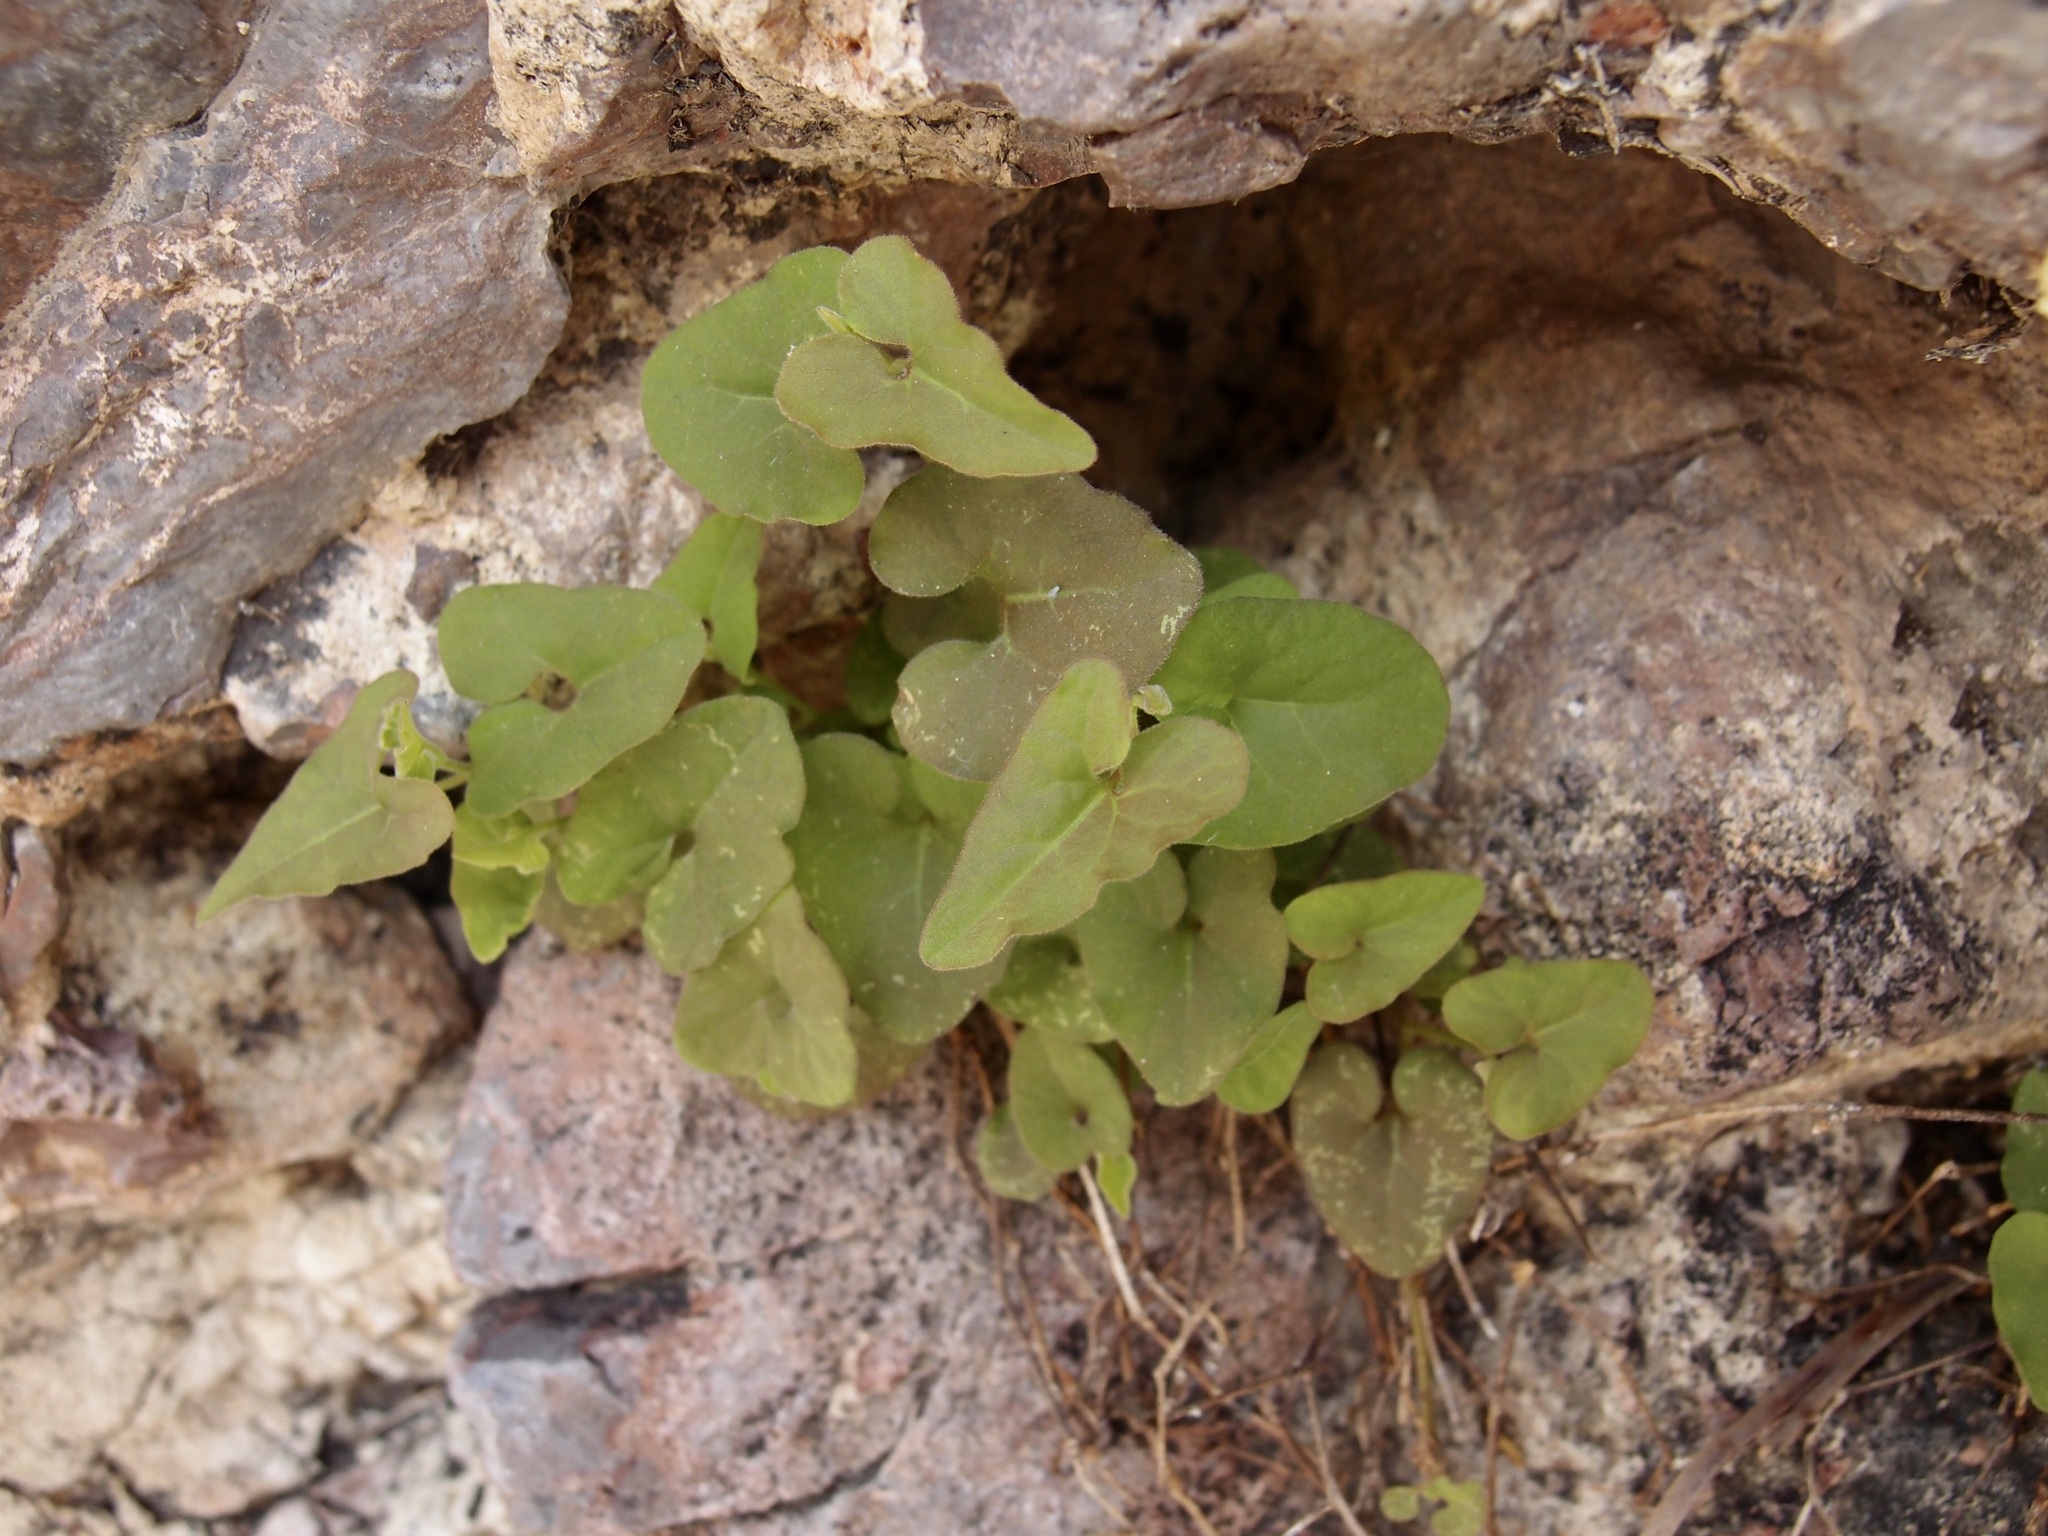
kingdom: Plantae
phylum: Tracheophyta
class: Magnoliopsida
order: Piperales
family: Aristolochiaceae
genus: Aristolochia
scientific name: Aristolochia watsonii
